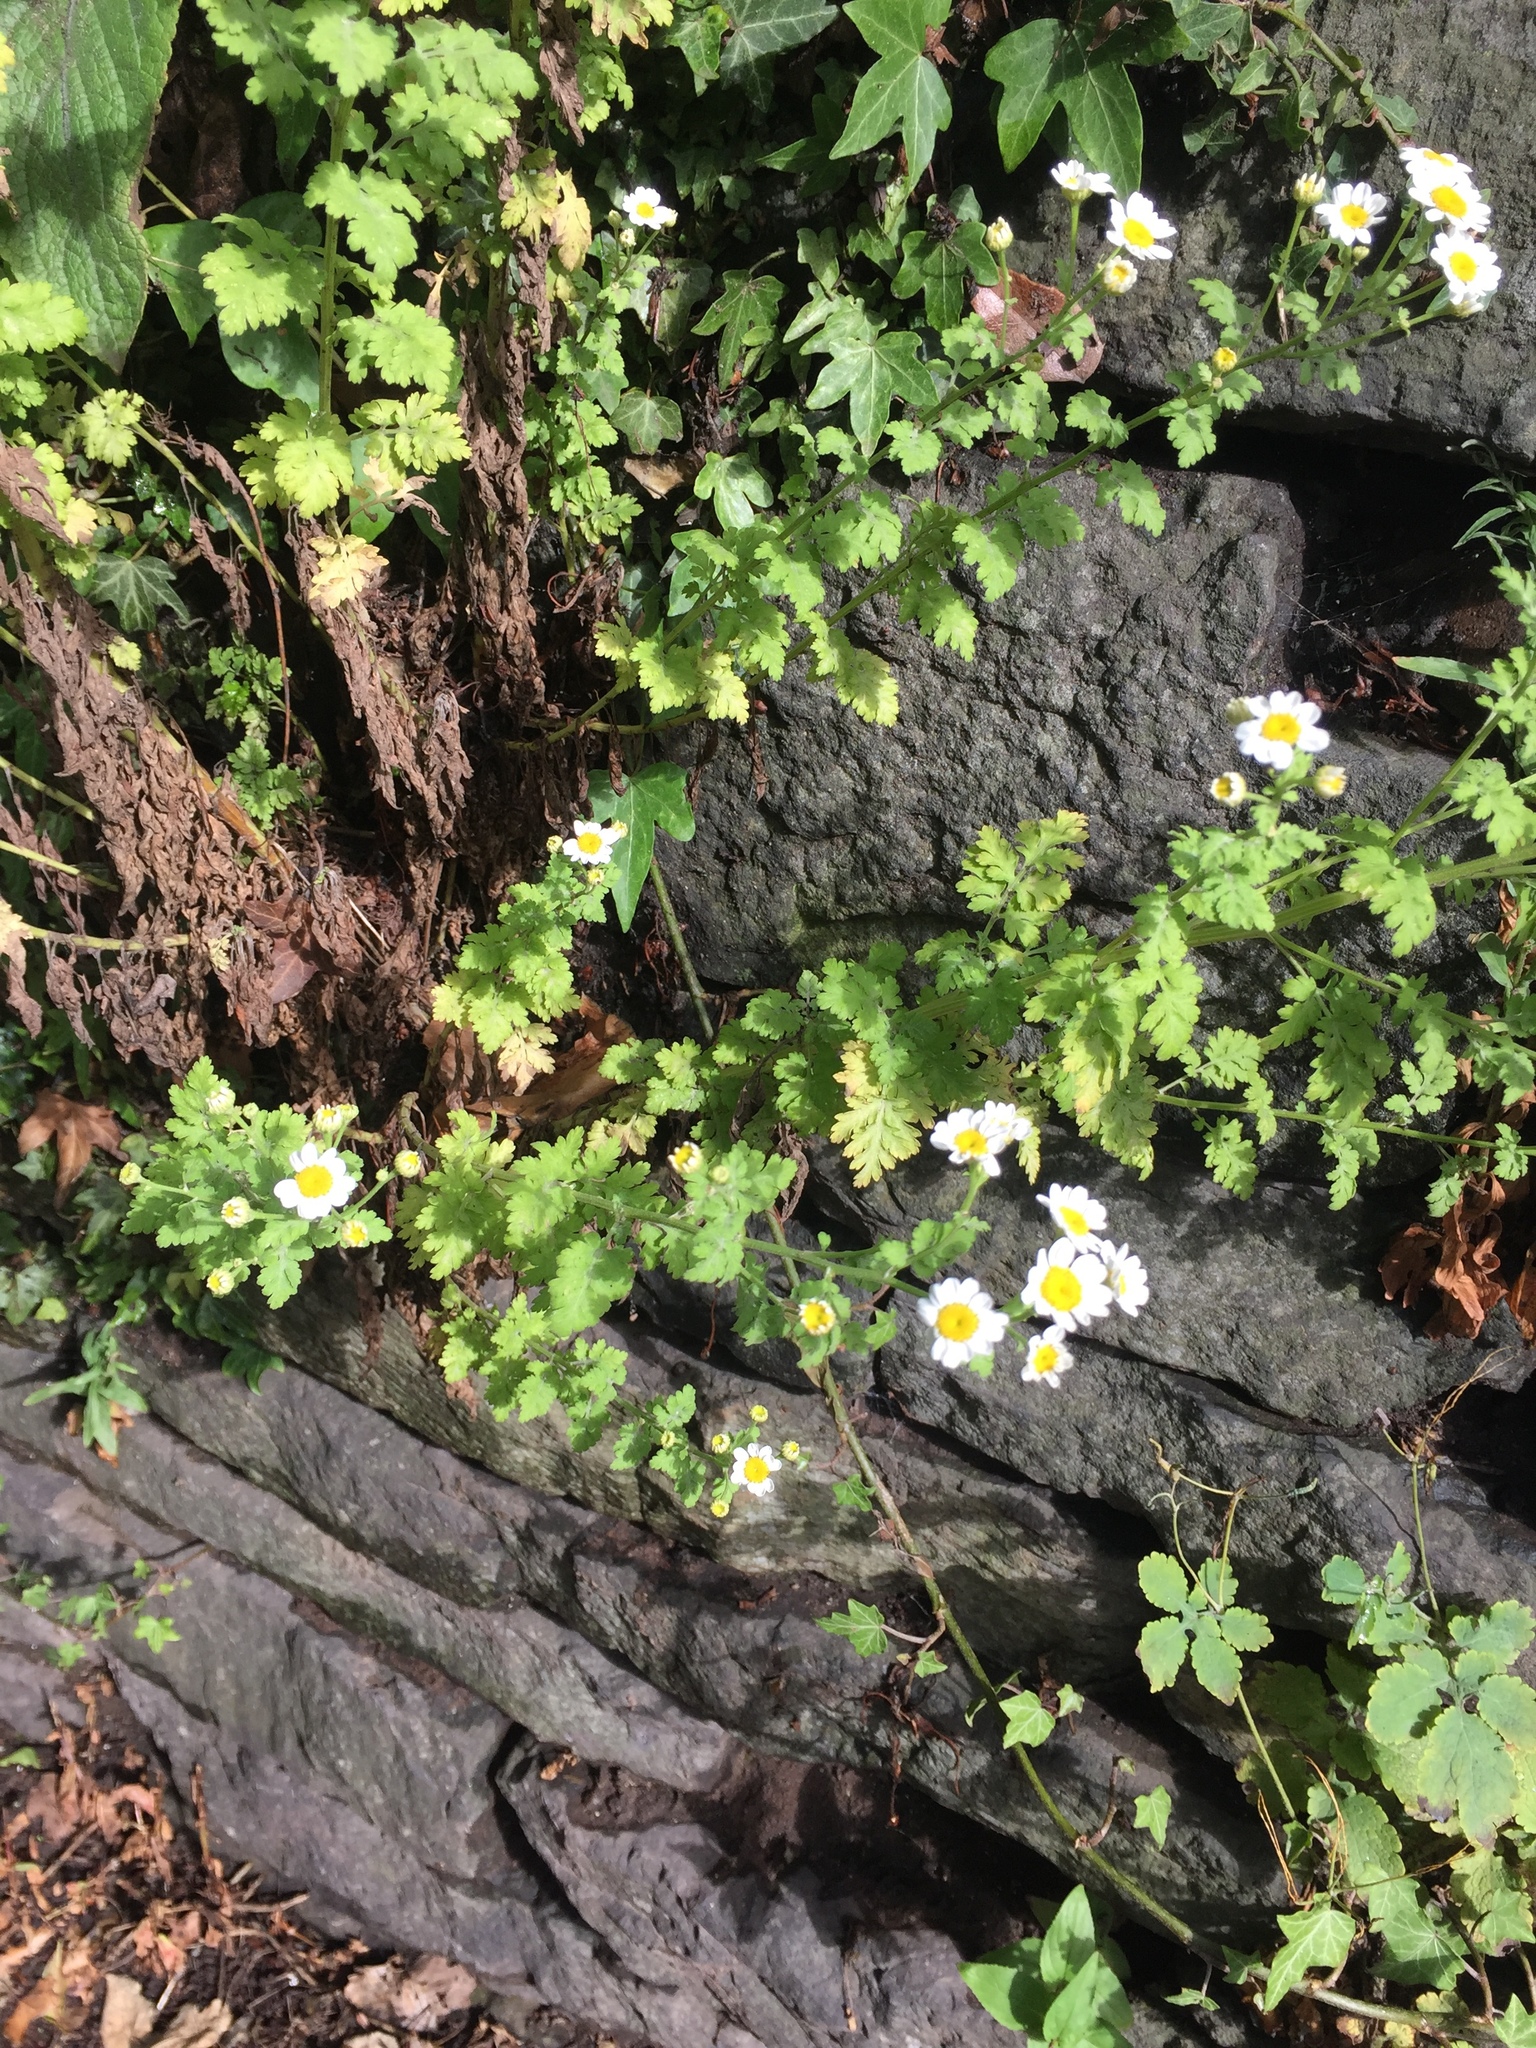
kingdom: Plantae
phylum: Tracheophyta
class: Magnoliopsida
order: Asterales
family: Asteraceae
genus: Tanacetum
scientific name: Tanacetum parthenium
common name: Feverfew
